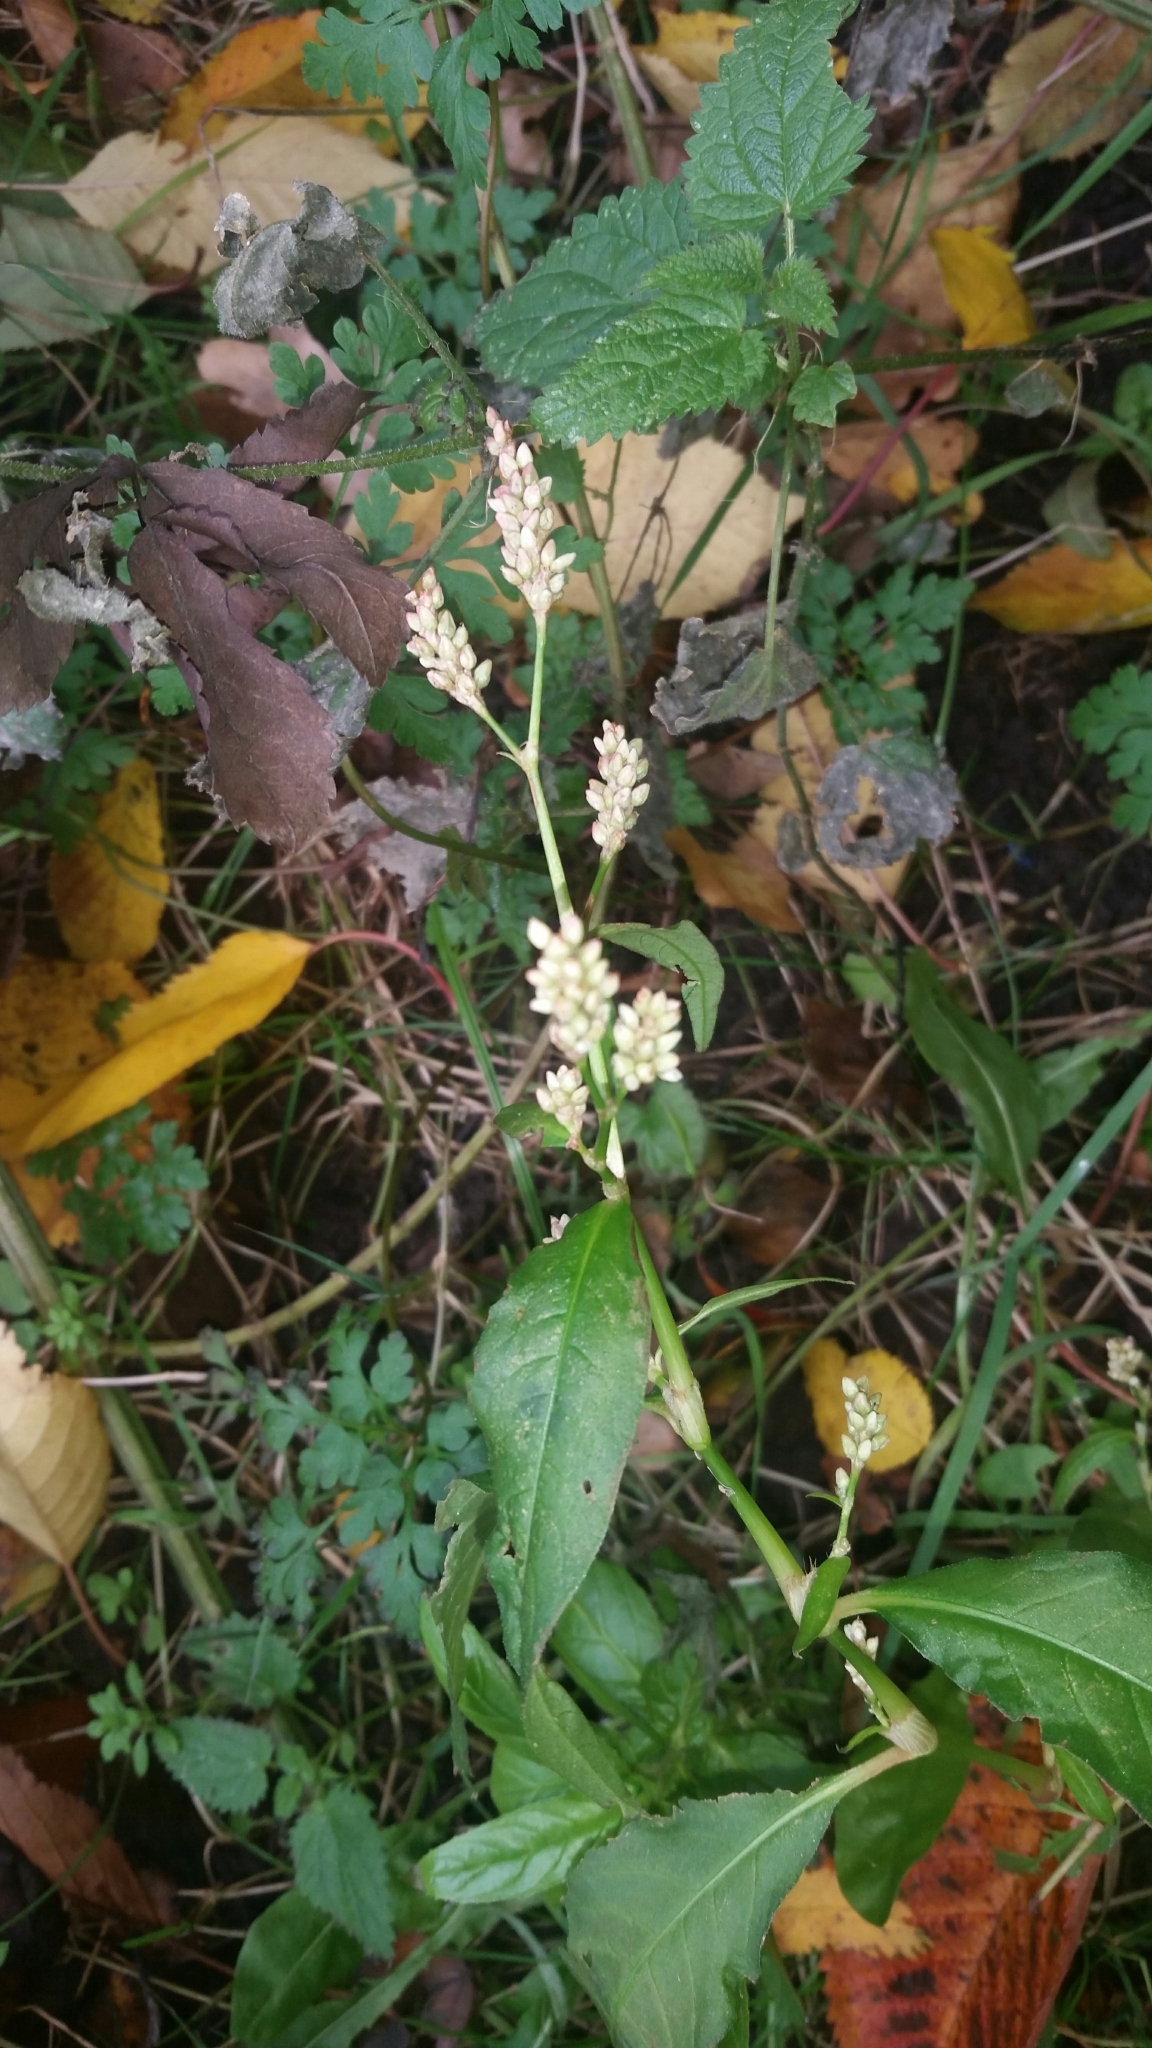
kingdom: Plantae
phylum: Tracheophyta
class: Magnoliopsida
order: Caryophyllales
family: Polygonaceae
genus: Persicaria
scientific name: Persicaria lapathifolia
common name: Curlytop knotweed
